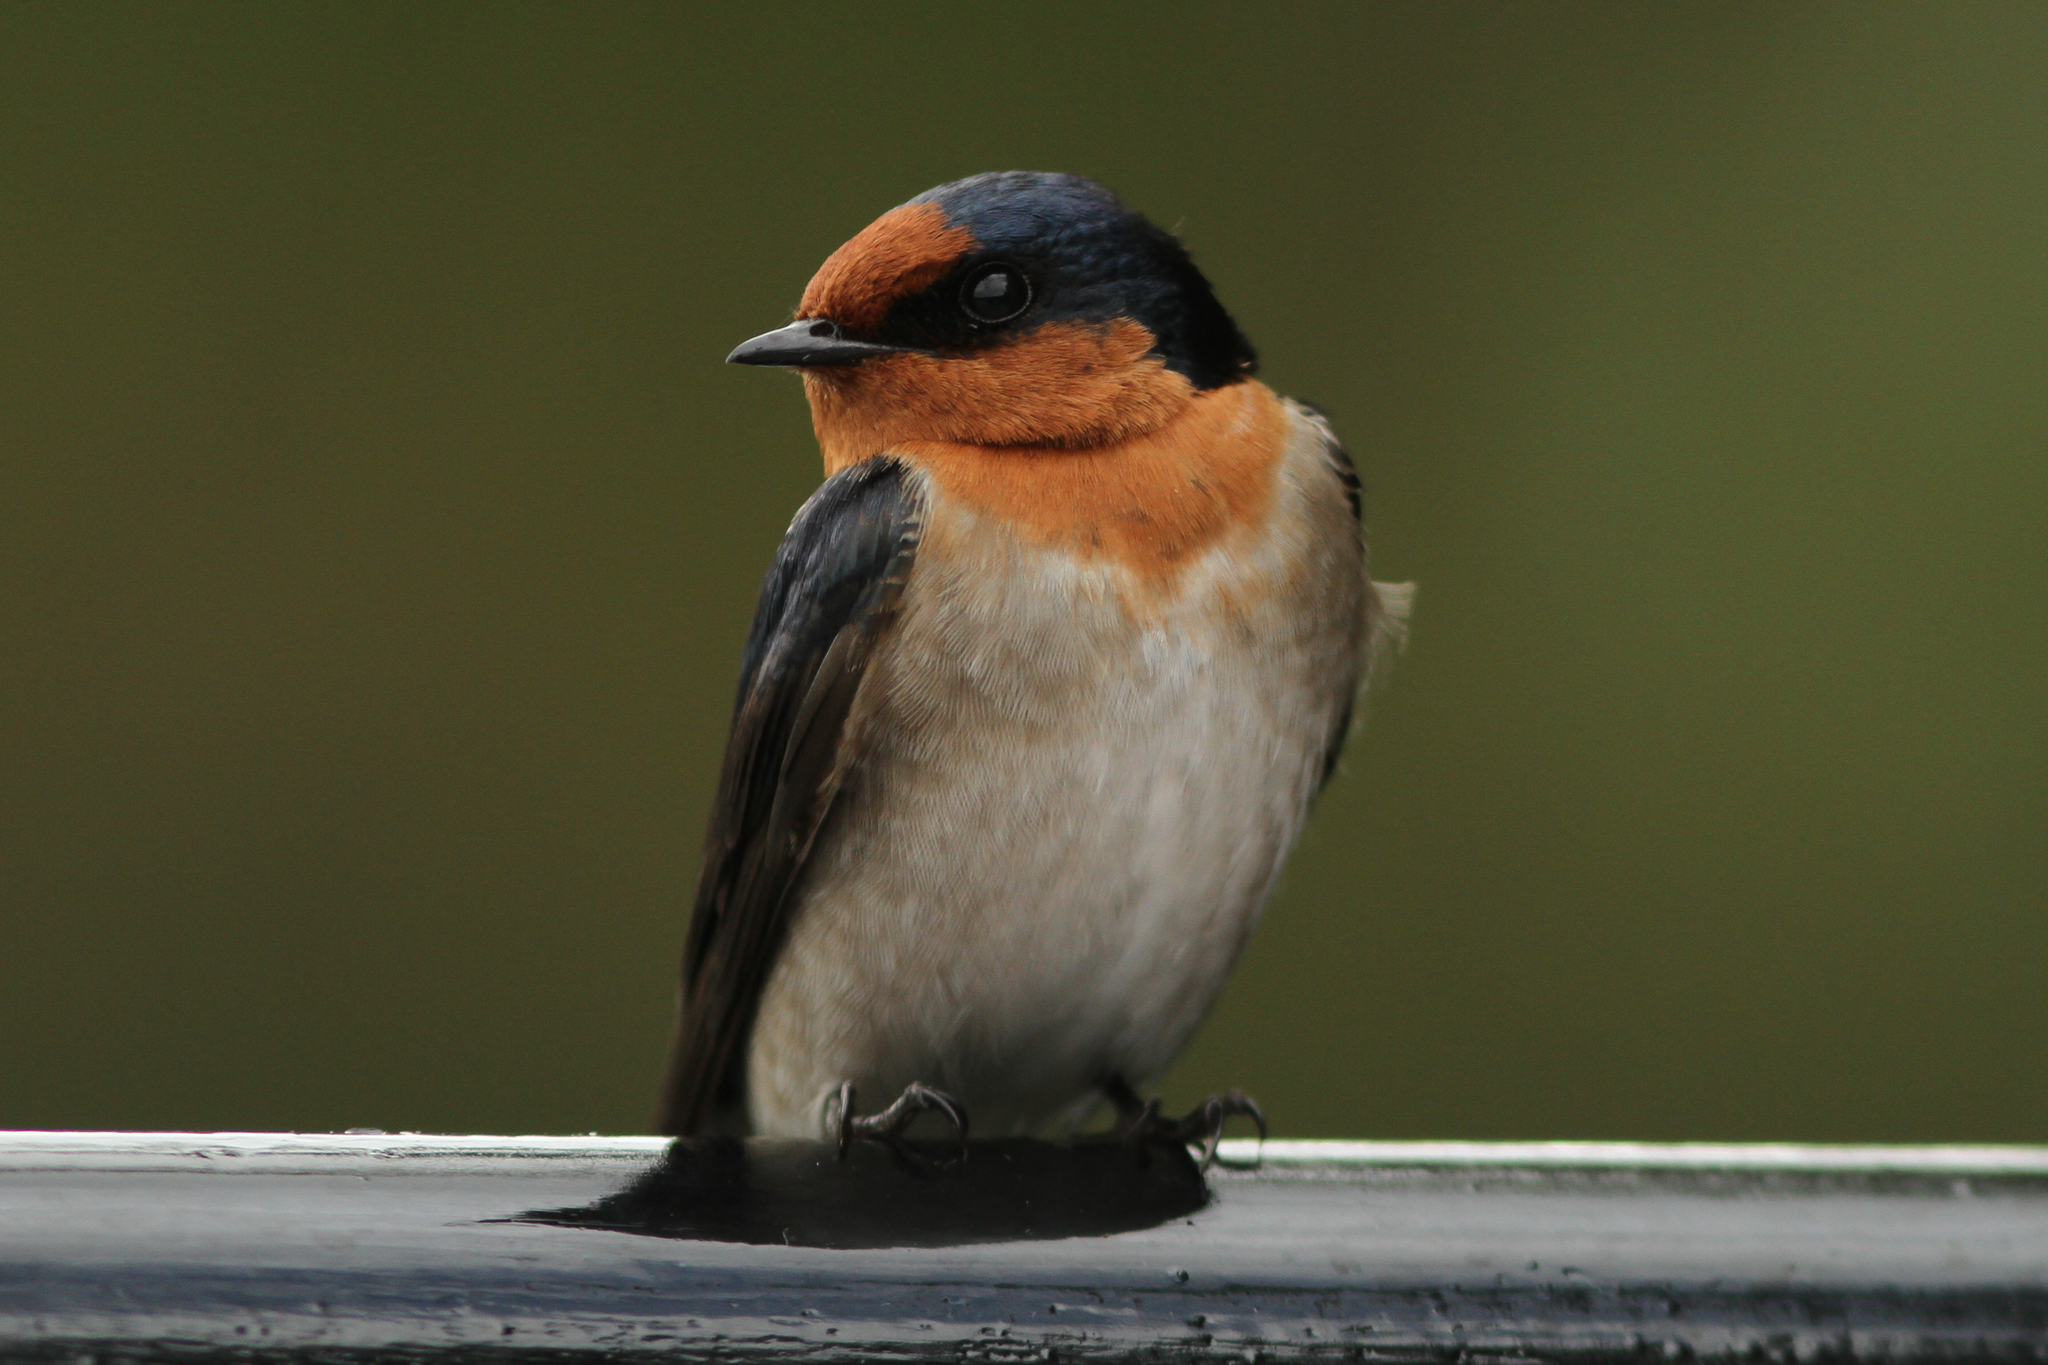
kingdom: Animalia
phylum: Chordata
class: Aves
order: Passeriformes
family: Hirundinidae
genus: Hirundo
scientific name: Hirundo neoxena
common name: Welcome swallow
